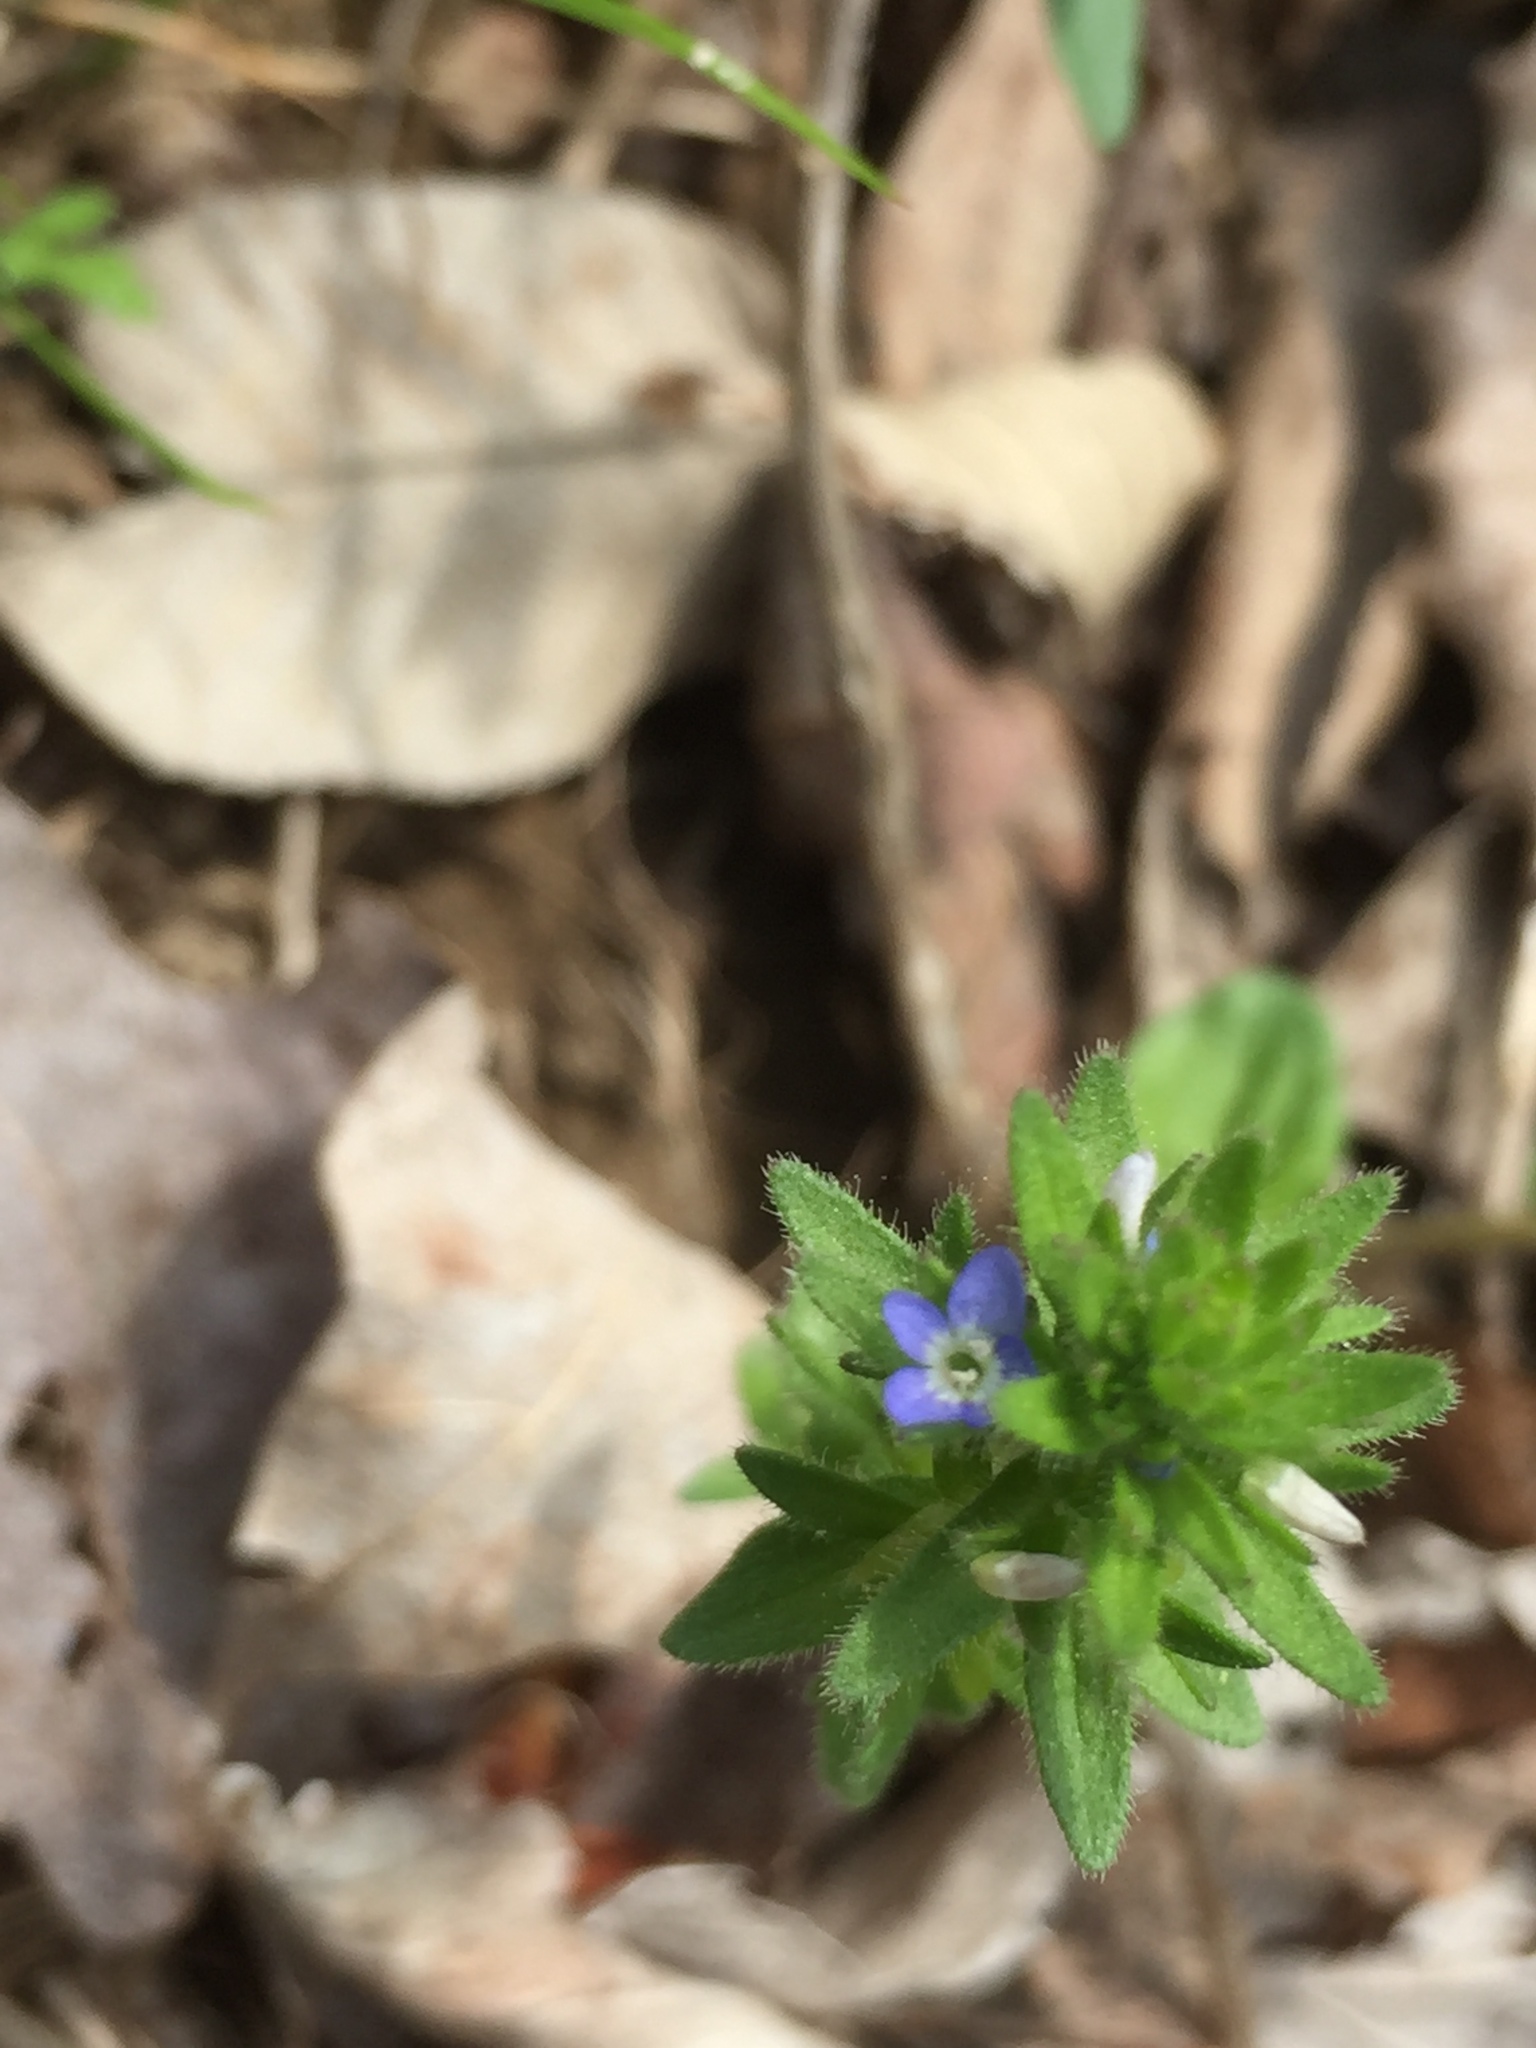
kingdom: Plantae
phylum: Tracheophyta
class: Magnoliopsida
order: Lamiales
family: Plantaginaceae
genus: Veronica
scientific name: Veronica arvensis
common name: Corn speedwell
